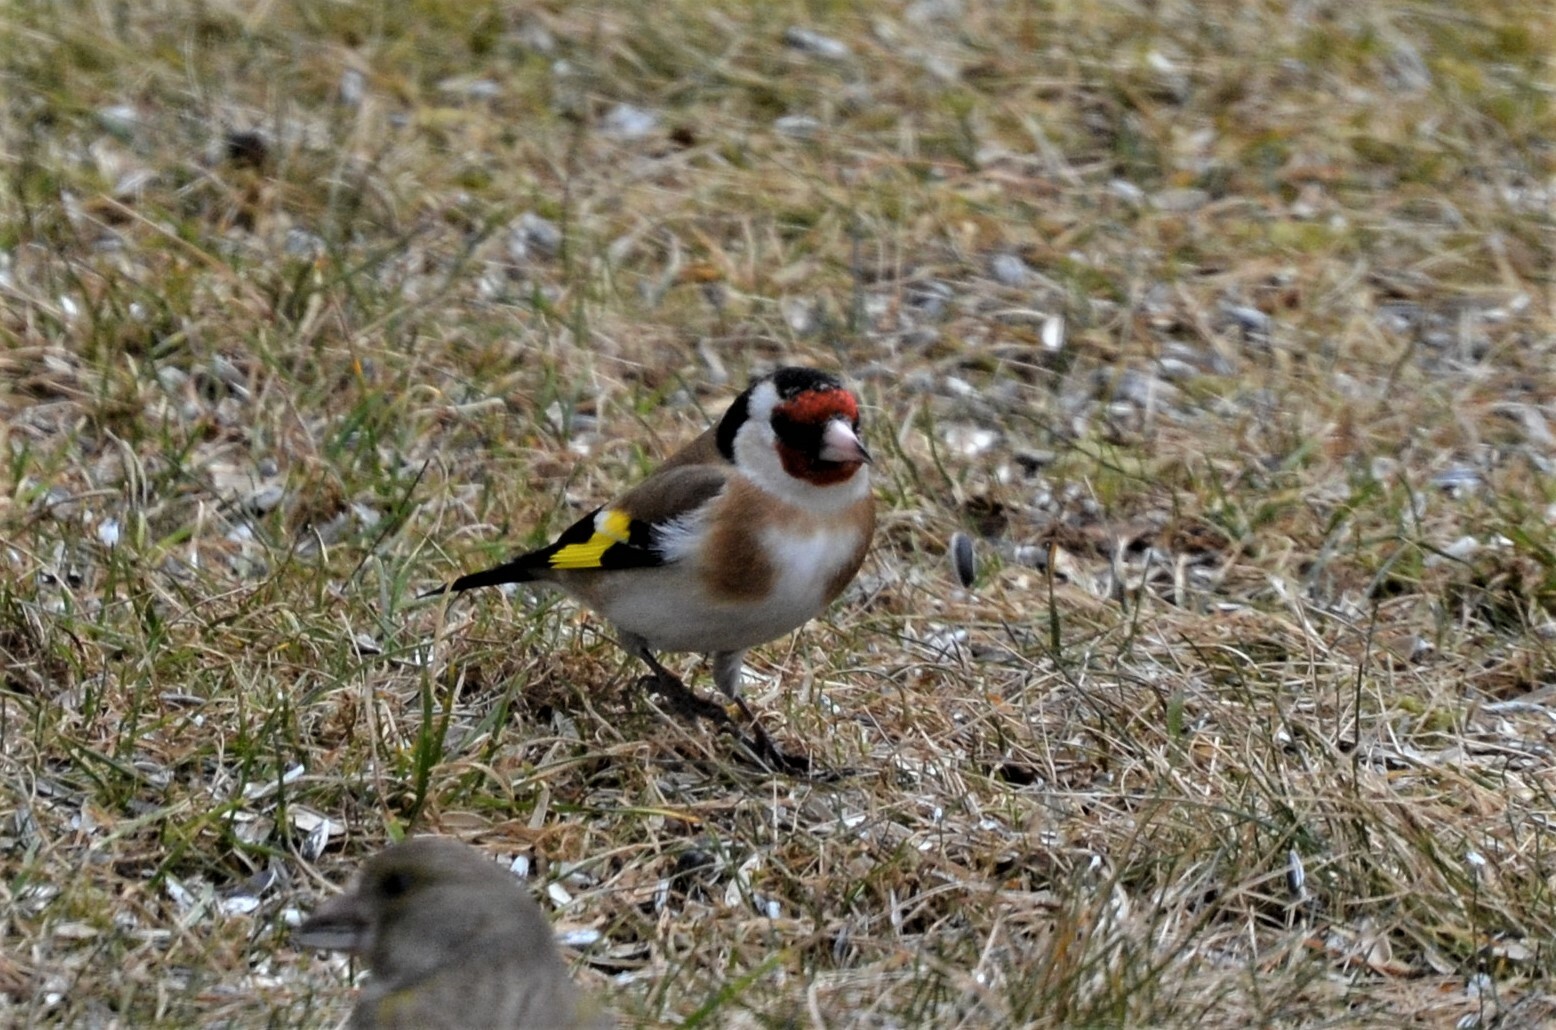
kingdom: Animalia
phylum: Chordata
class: Aves
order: Passeriformes
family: Fringillidae
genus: Carduelis
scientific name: Carduelis carduelis
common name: European goldfinch
